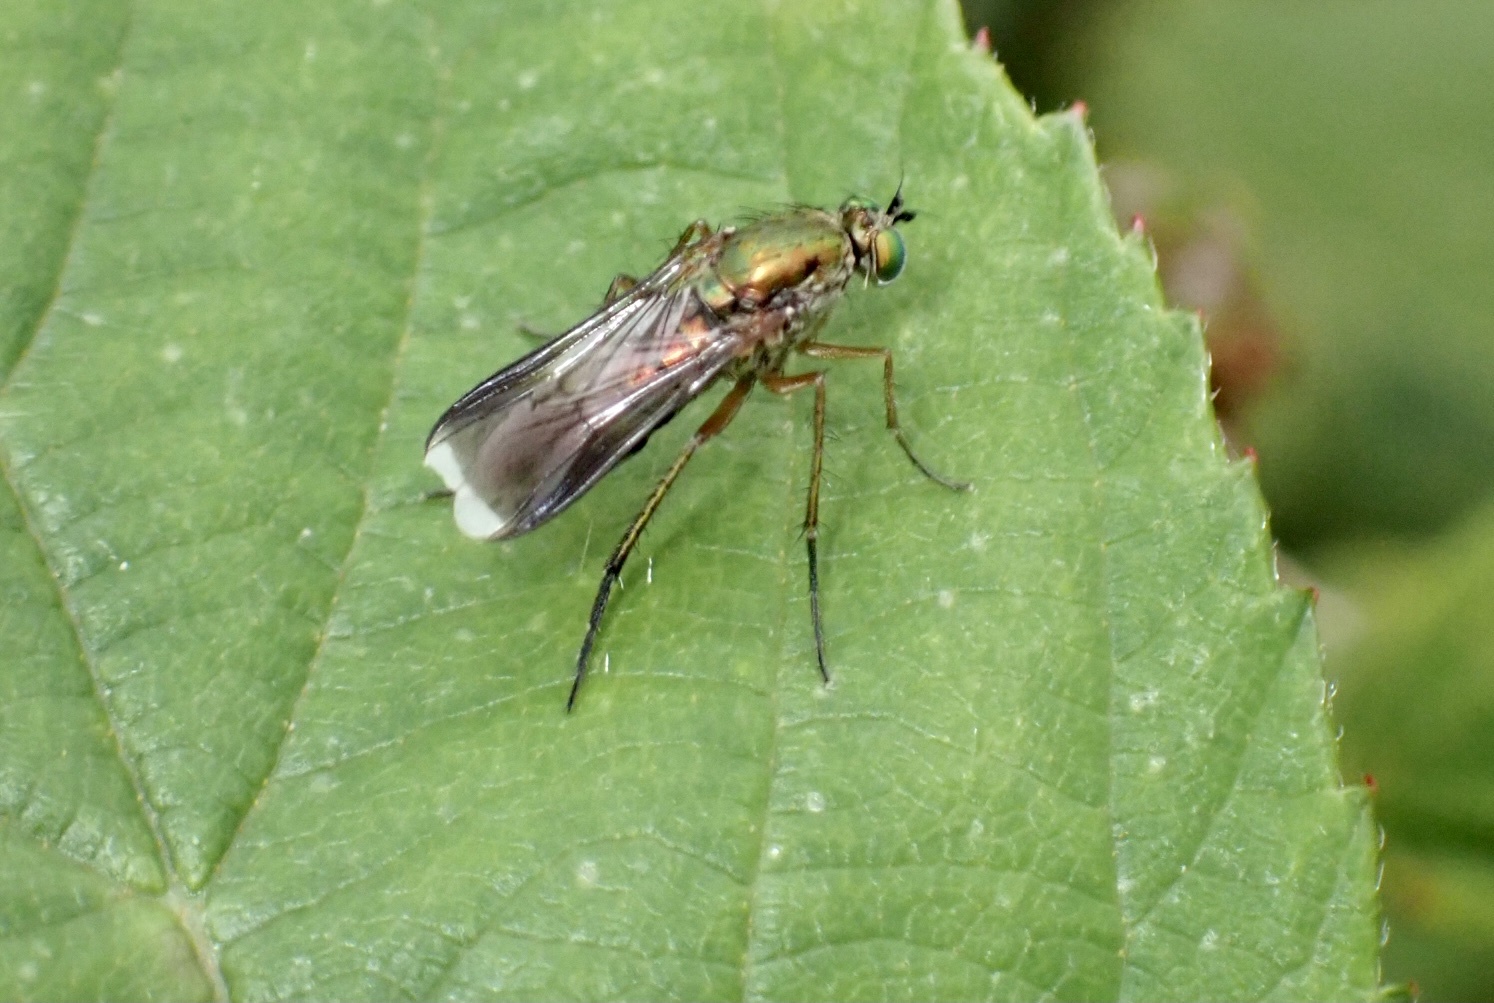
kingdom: Animalia
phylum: Arthropoda
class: Insecta
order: Diptera
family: Dolichopodidae
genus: Poecilobothrus
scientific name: Poecilobothrus nobilitatus
